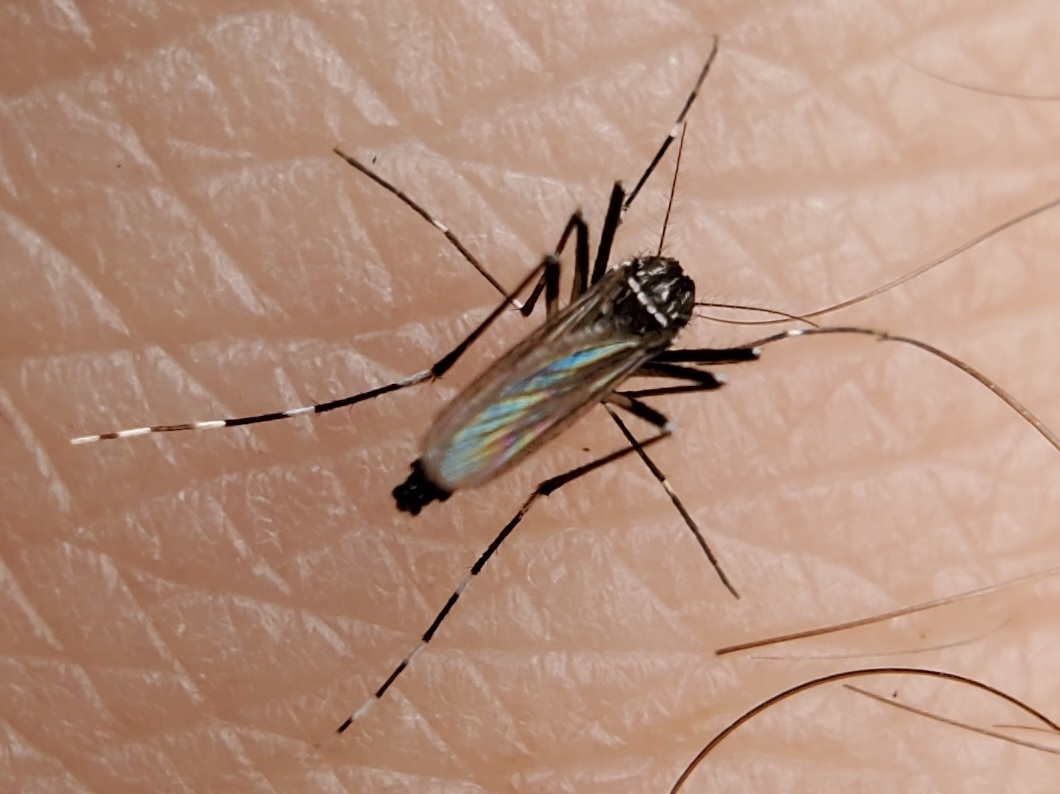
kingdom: Animalia
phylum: Arthropoda
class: Insecta
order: Diptera
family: Culicidae
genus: Aedes
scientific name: Aedes albopictus
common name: Tiger mosquito
